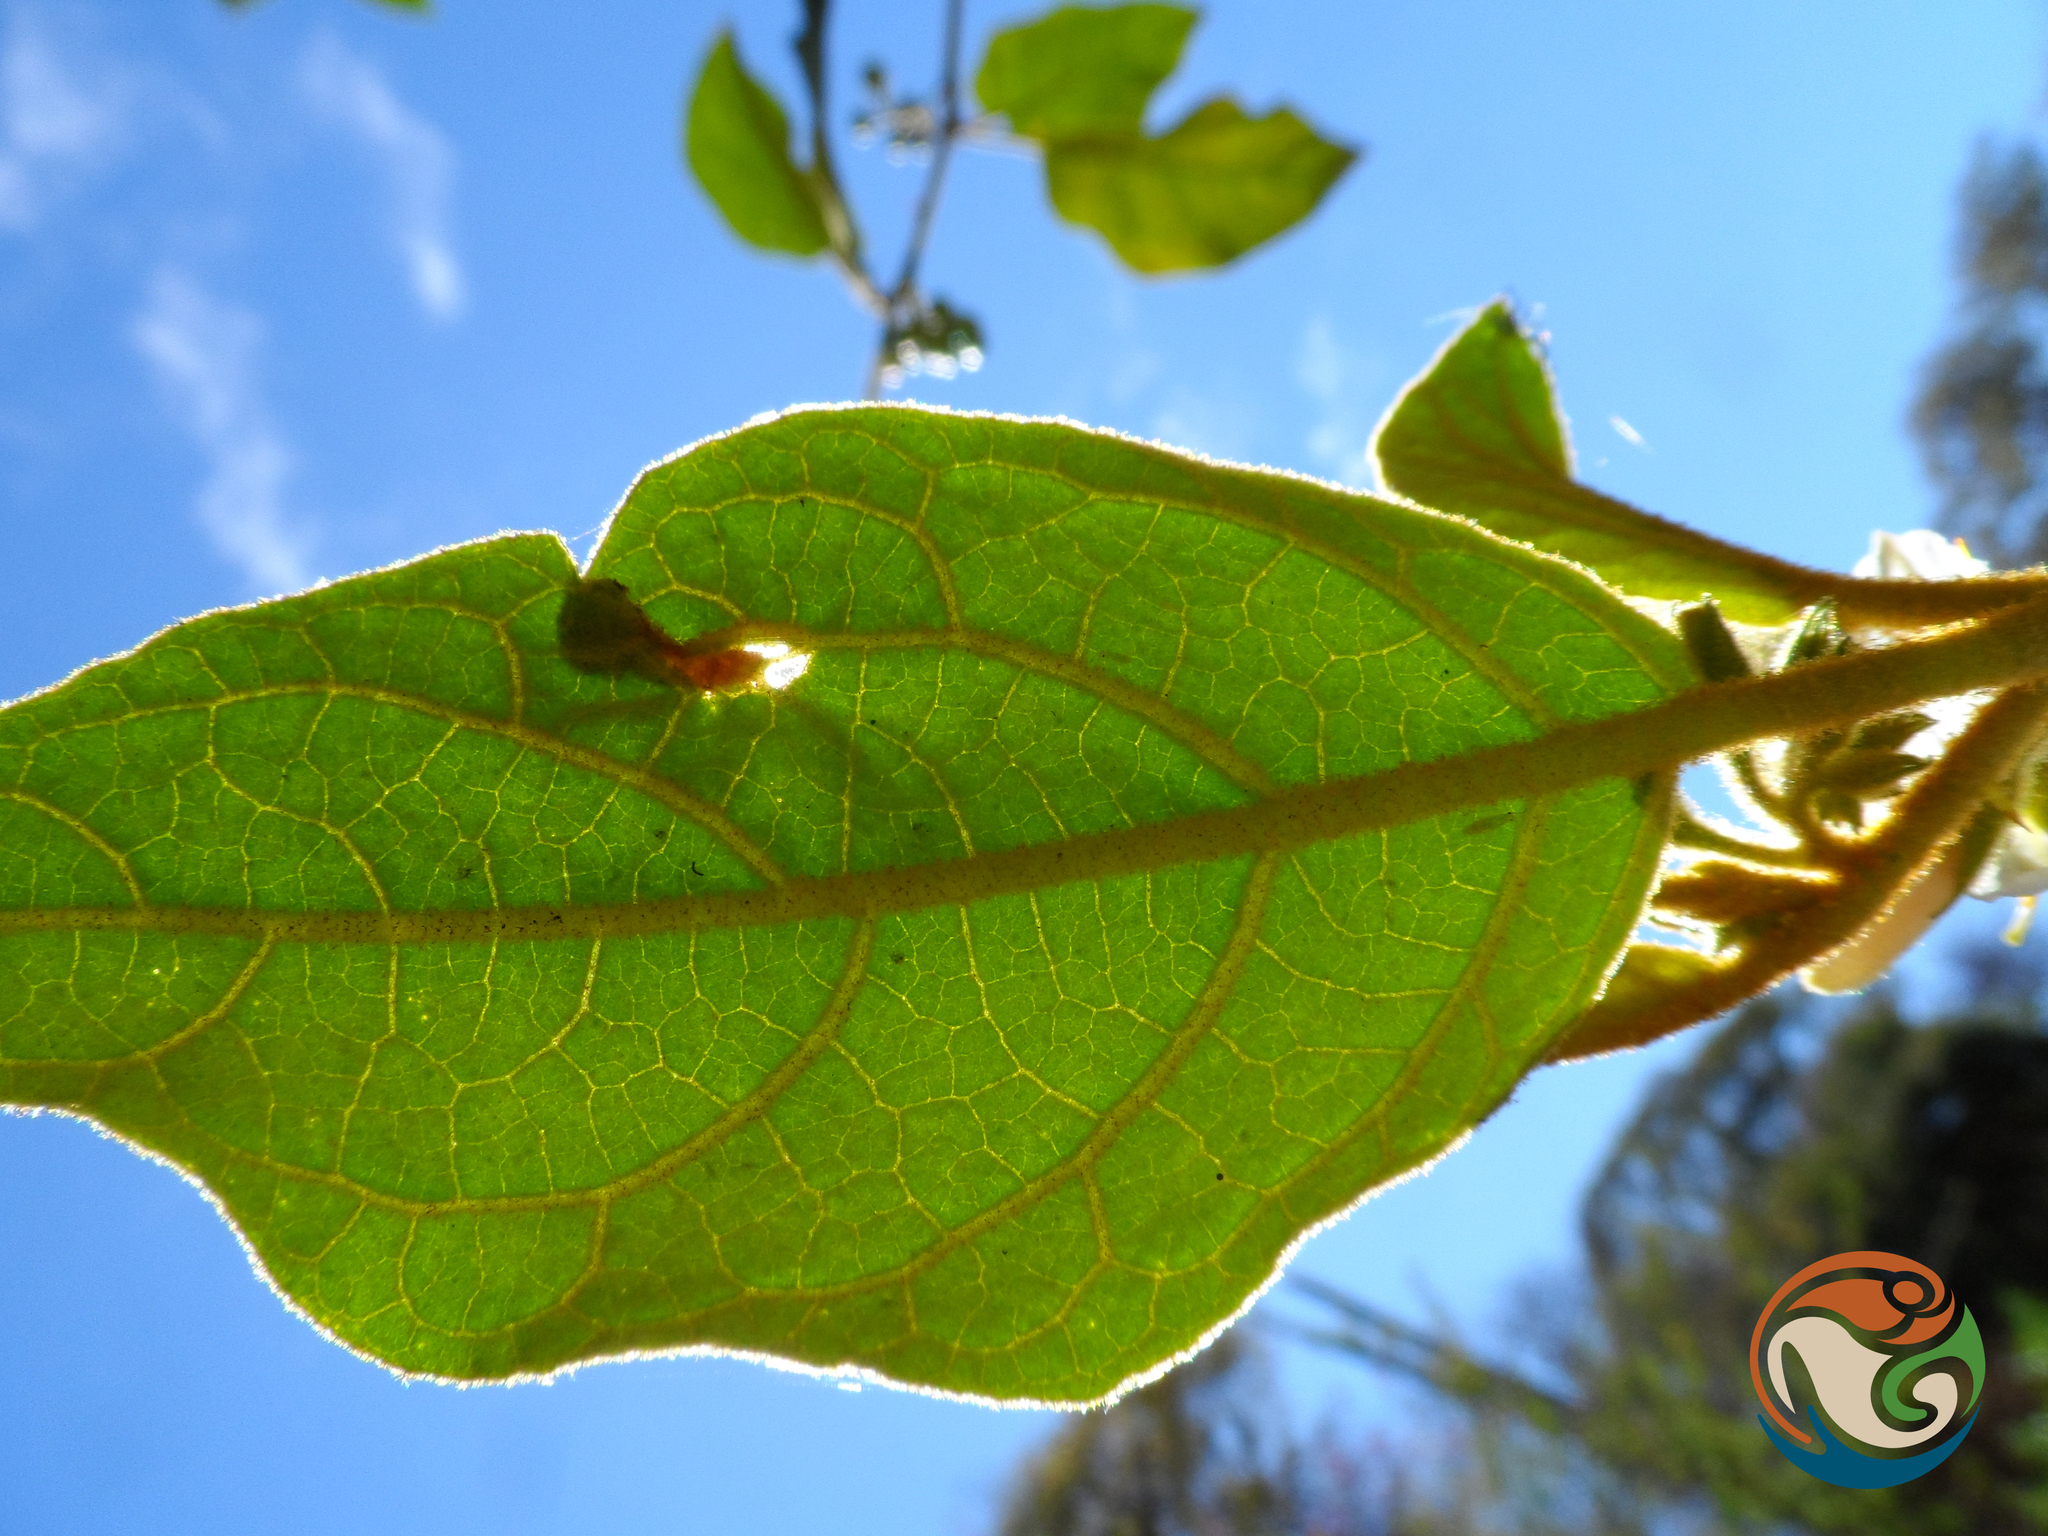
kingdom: Plantae
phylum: Tracheophyta
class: Magnoliopsida
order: Solanales
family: Solanaceae
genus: Solanum
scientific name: Solanum ferrugineum
